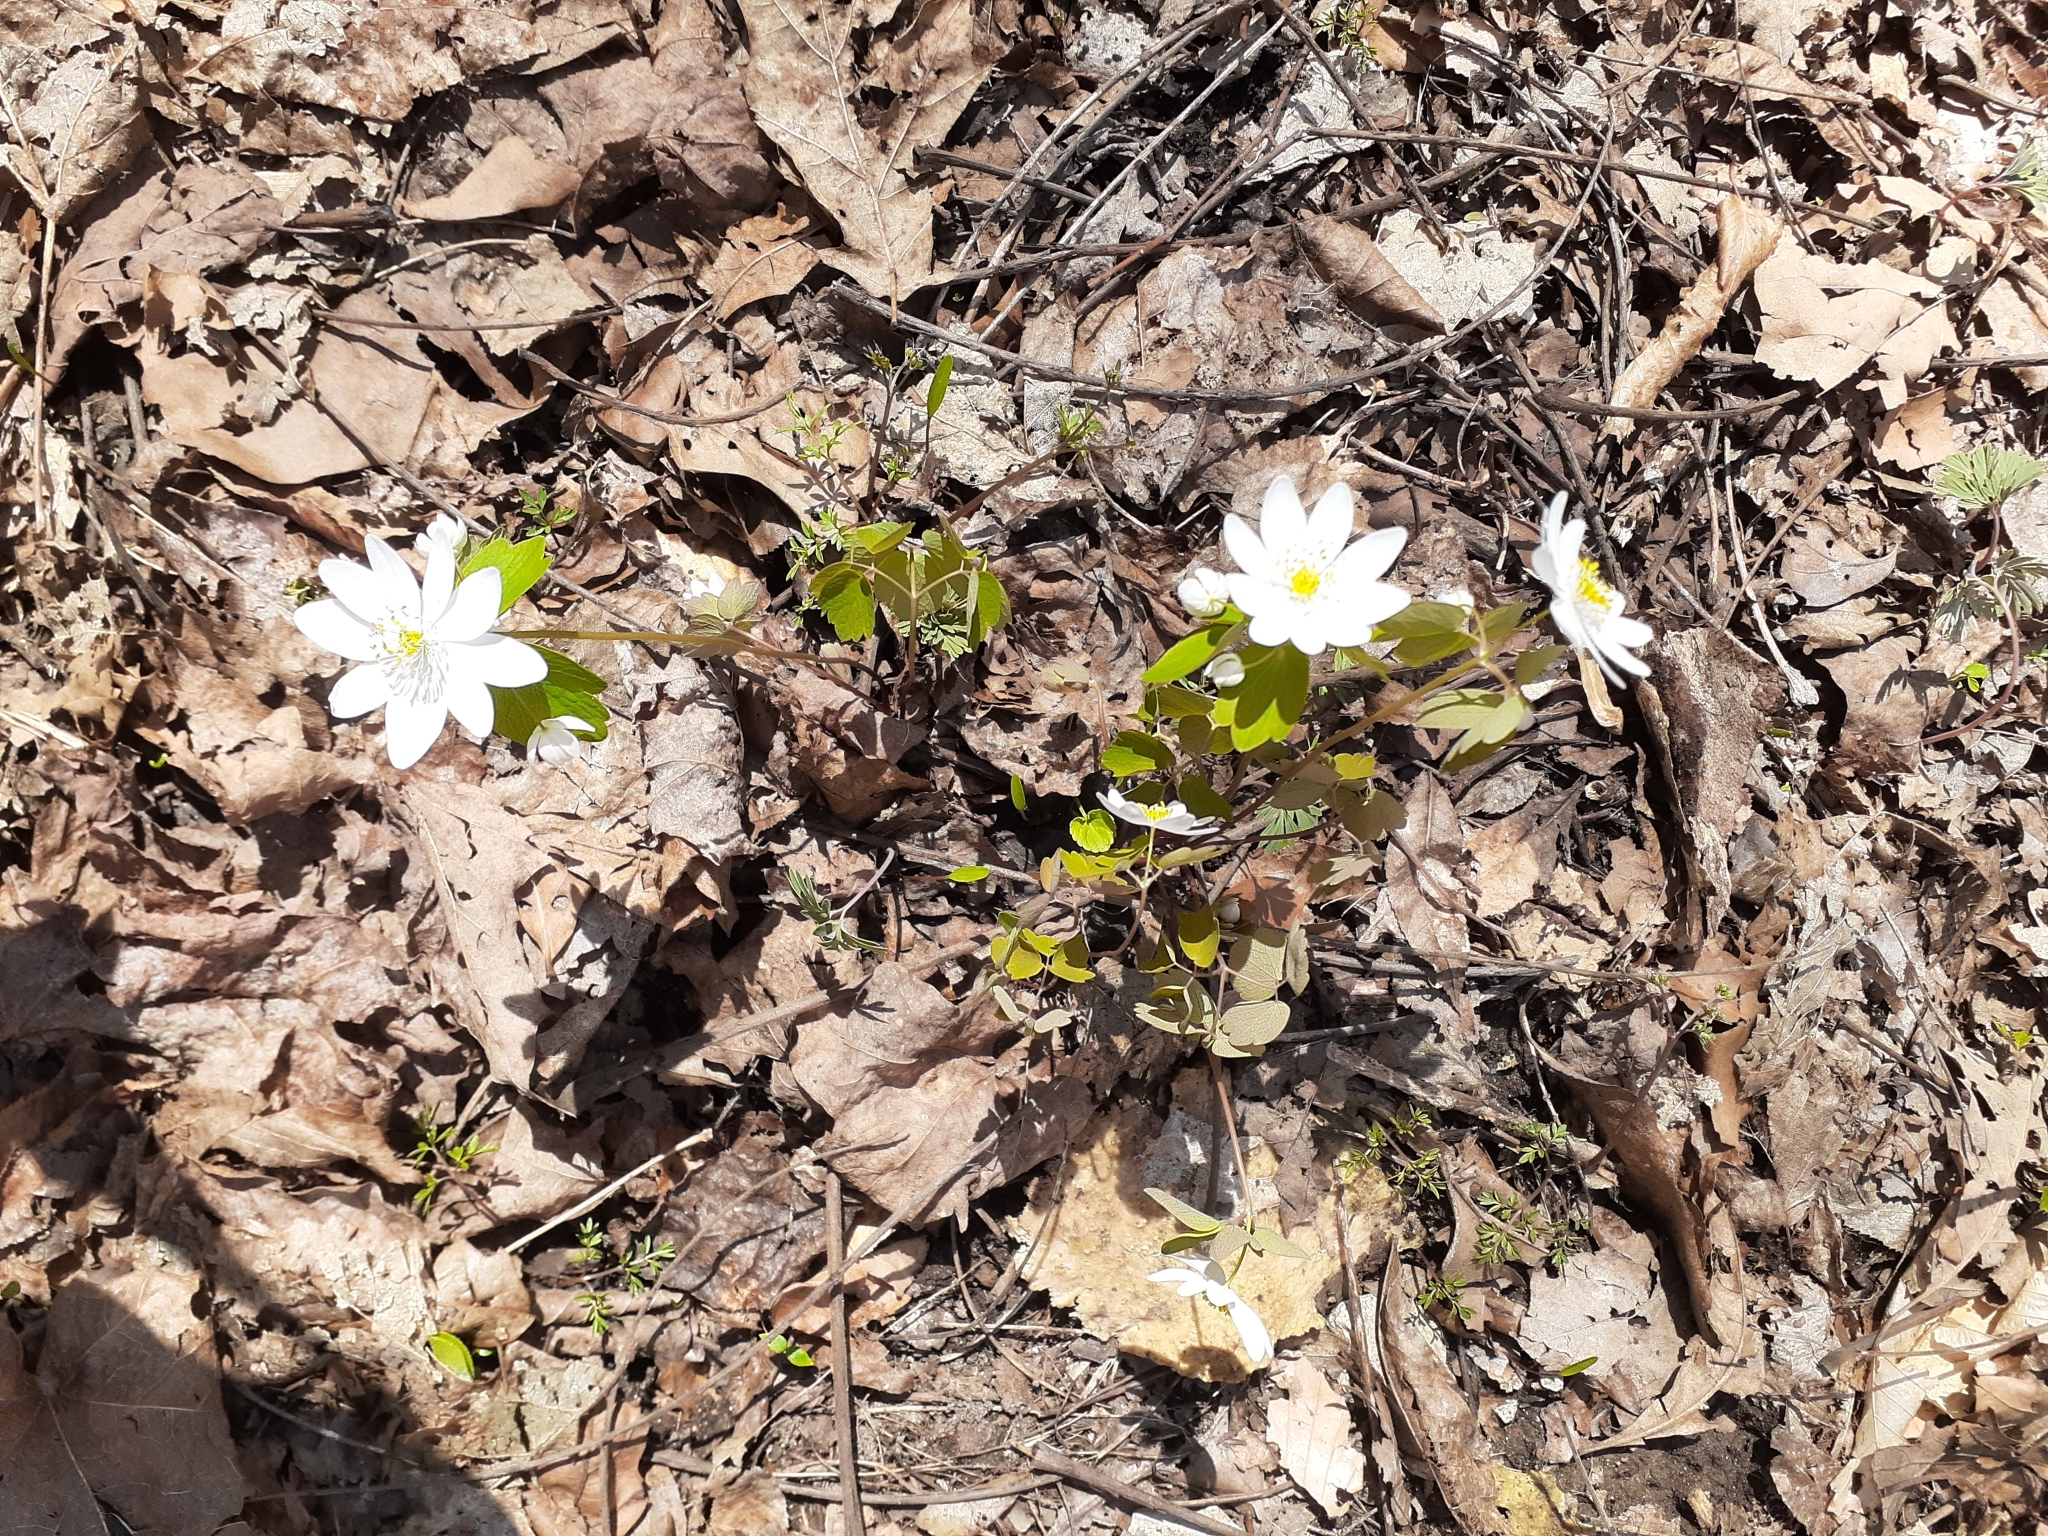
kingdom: Plantae
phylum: Tracheophyta
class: Magnoliopsida
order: Ranunculales
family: Ranunculaceae
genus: Thalictrum
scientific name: Thalictrum thalictroides
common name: Rue-anemone
